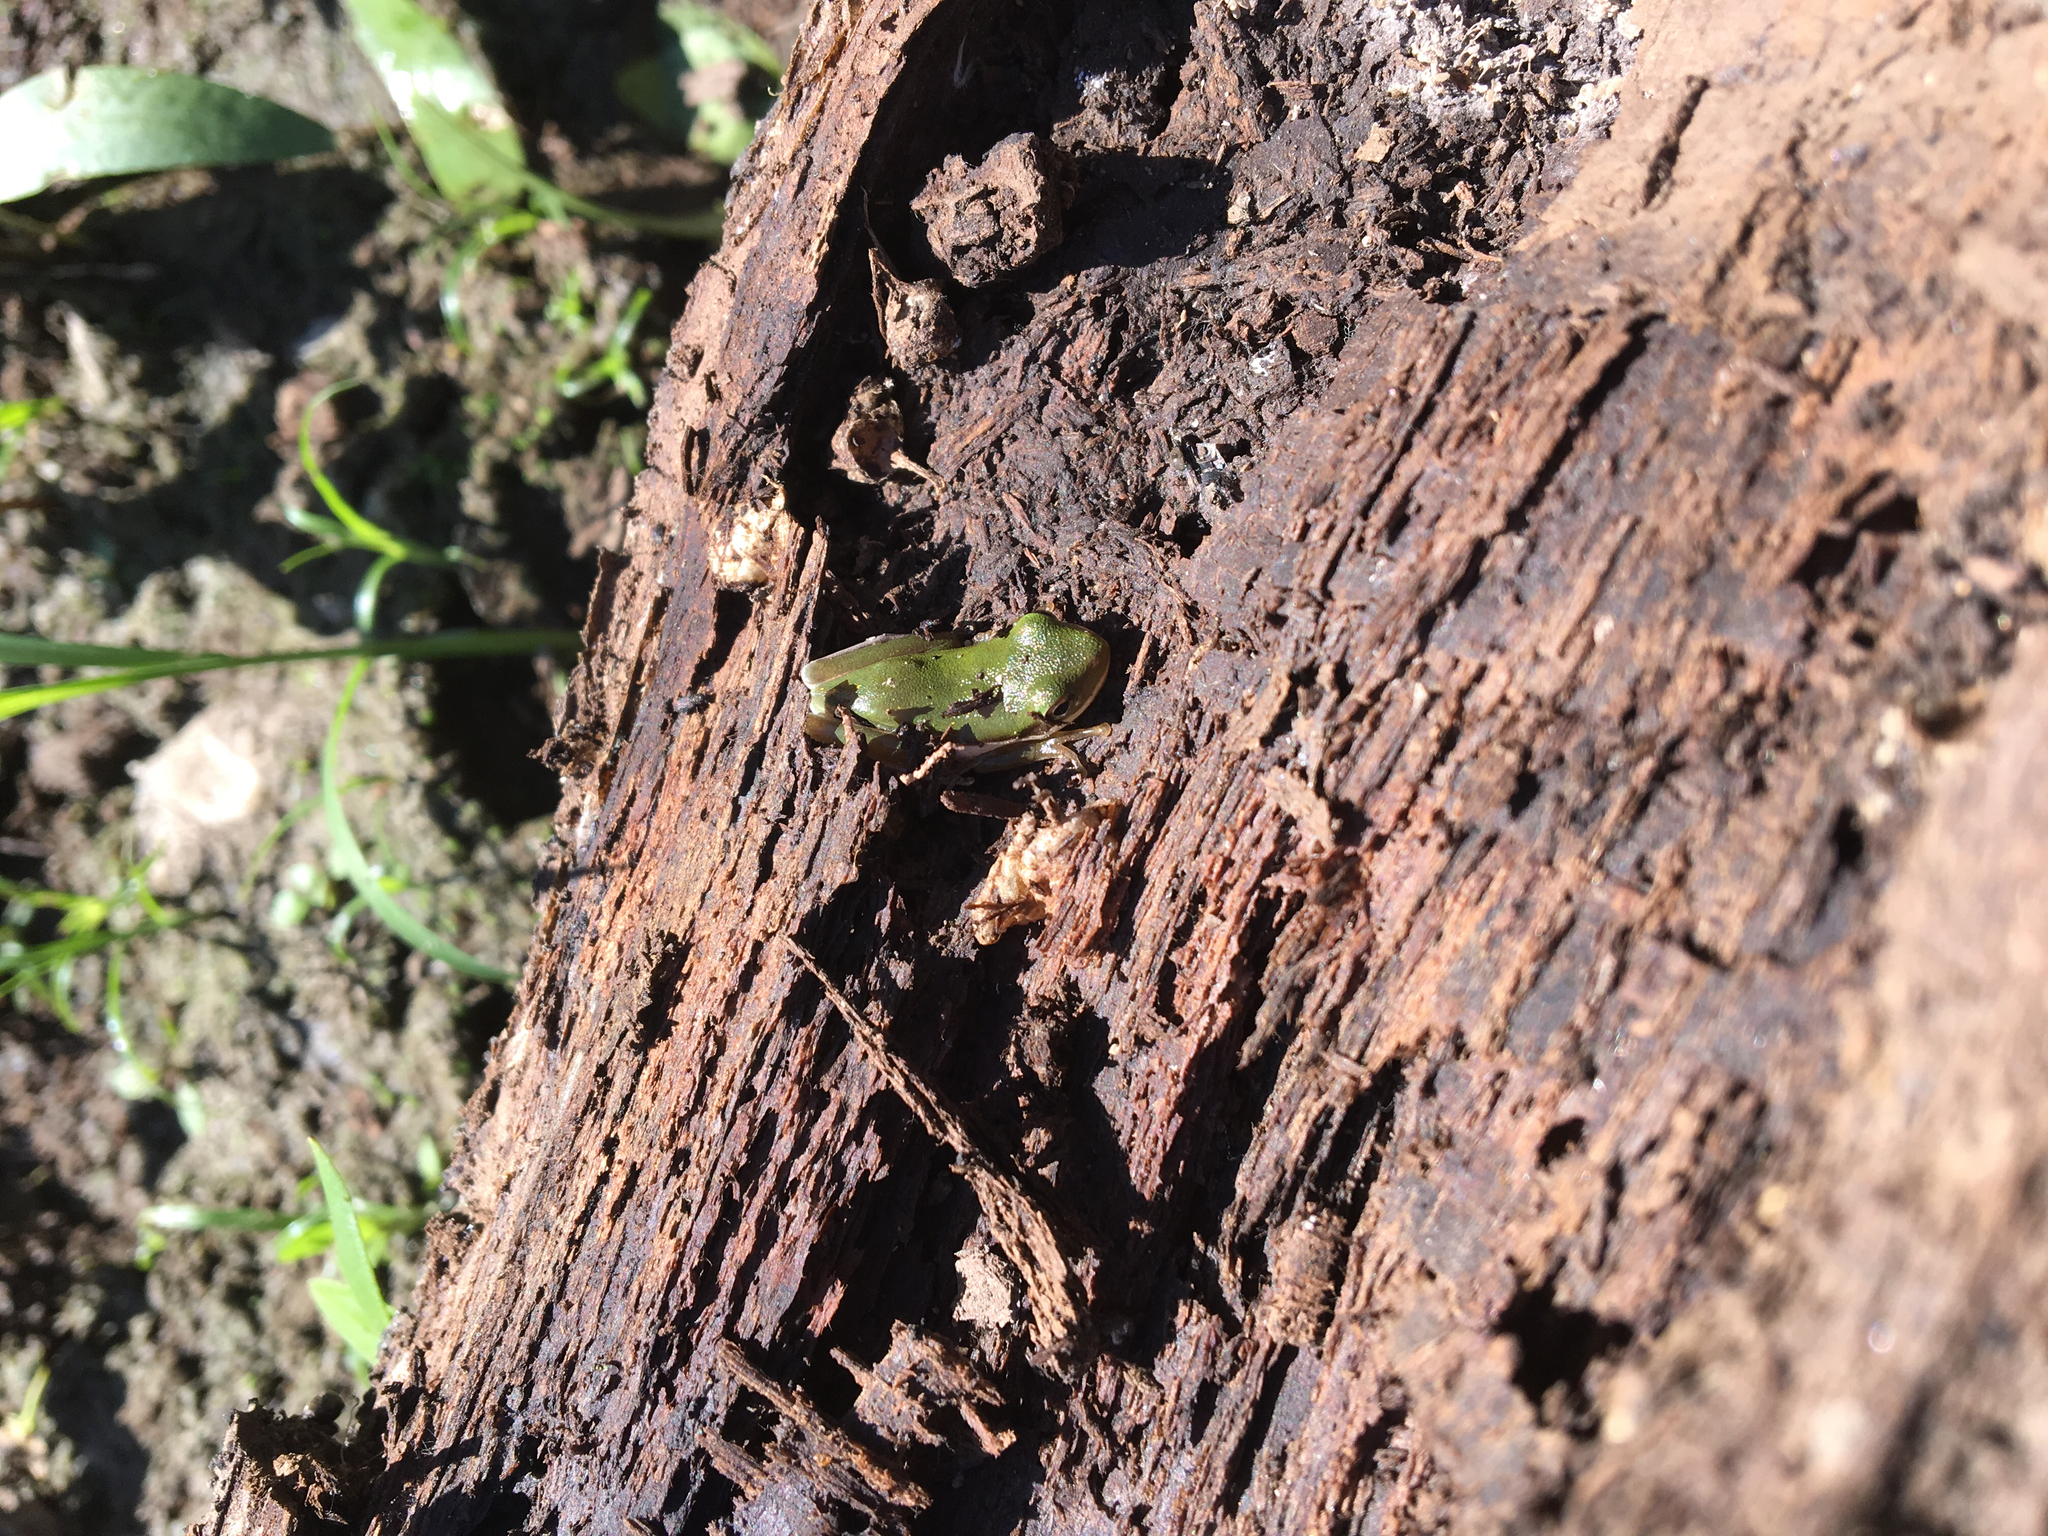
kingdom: Animalia
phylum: Chordata
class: Amphibia
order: Anura
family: Hylidae
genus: Dryophytes
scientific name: Dryophytes cinereus
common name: Green treefrog
